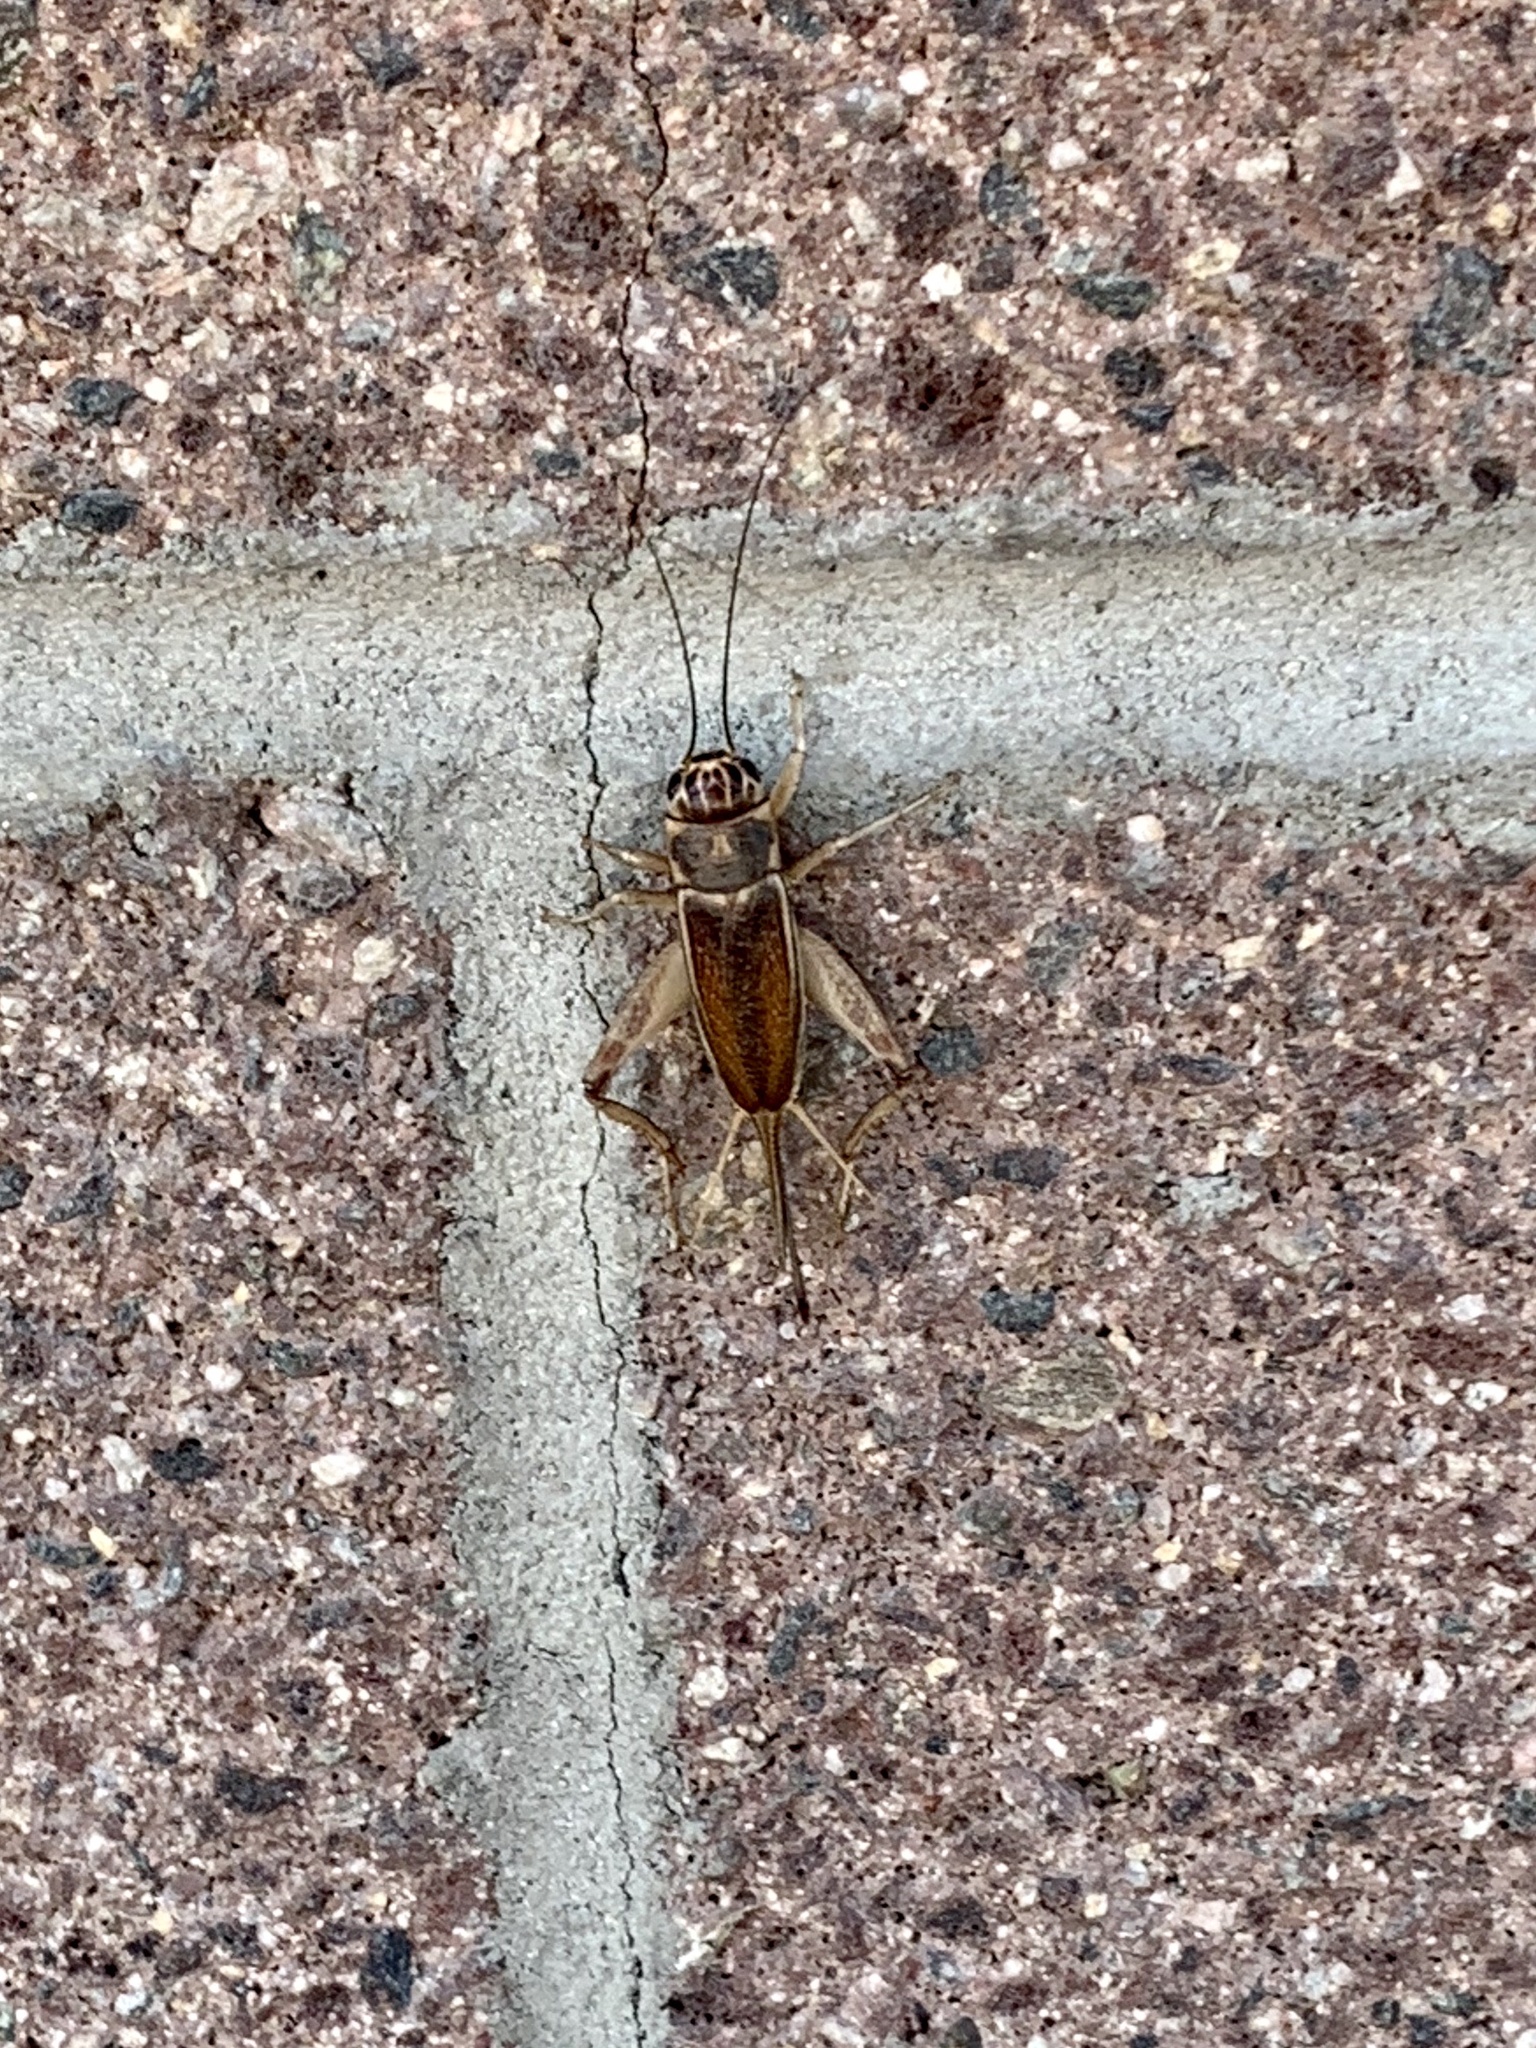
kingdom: Animalia
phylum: Arthropoda
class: Insecta
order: Orthoptera
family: Gryllidae
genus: Gryllus
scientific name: Gryllus staccato
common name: Stutter-chirping field cricket
